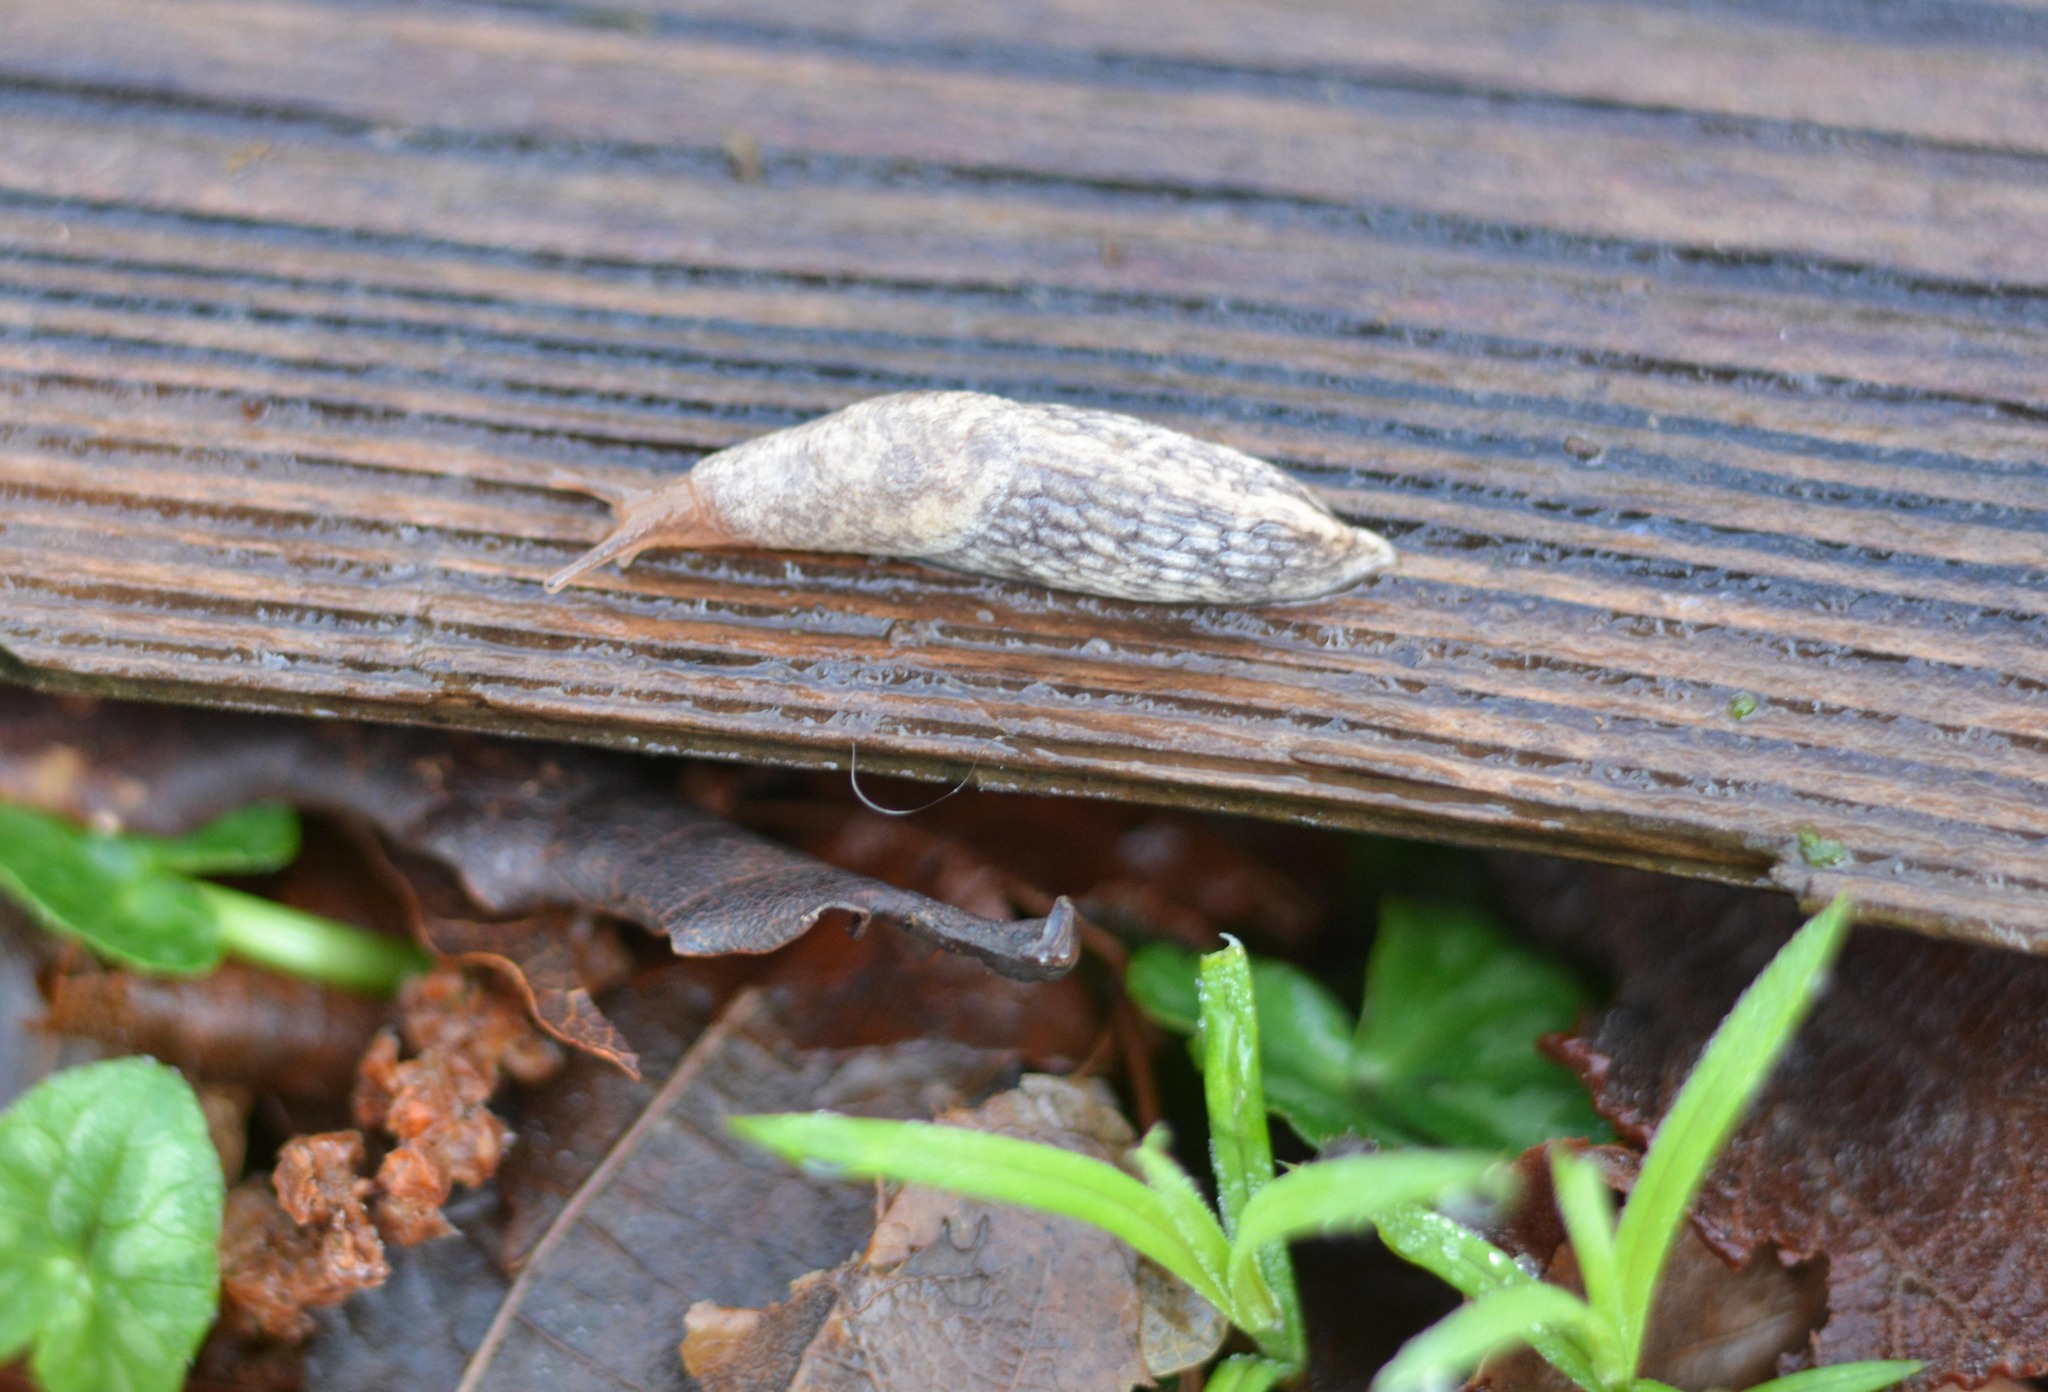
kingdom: Animalia
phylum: Mollusca
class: Gastropoda
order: Stylommatophora
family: Agriolimacidae
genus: Deroceras
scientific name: Deroceras reticulatum
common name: Gray field slug
